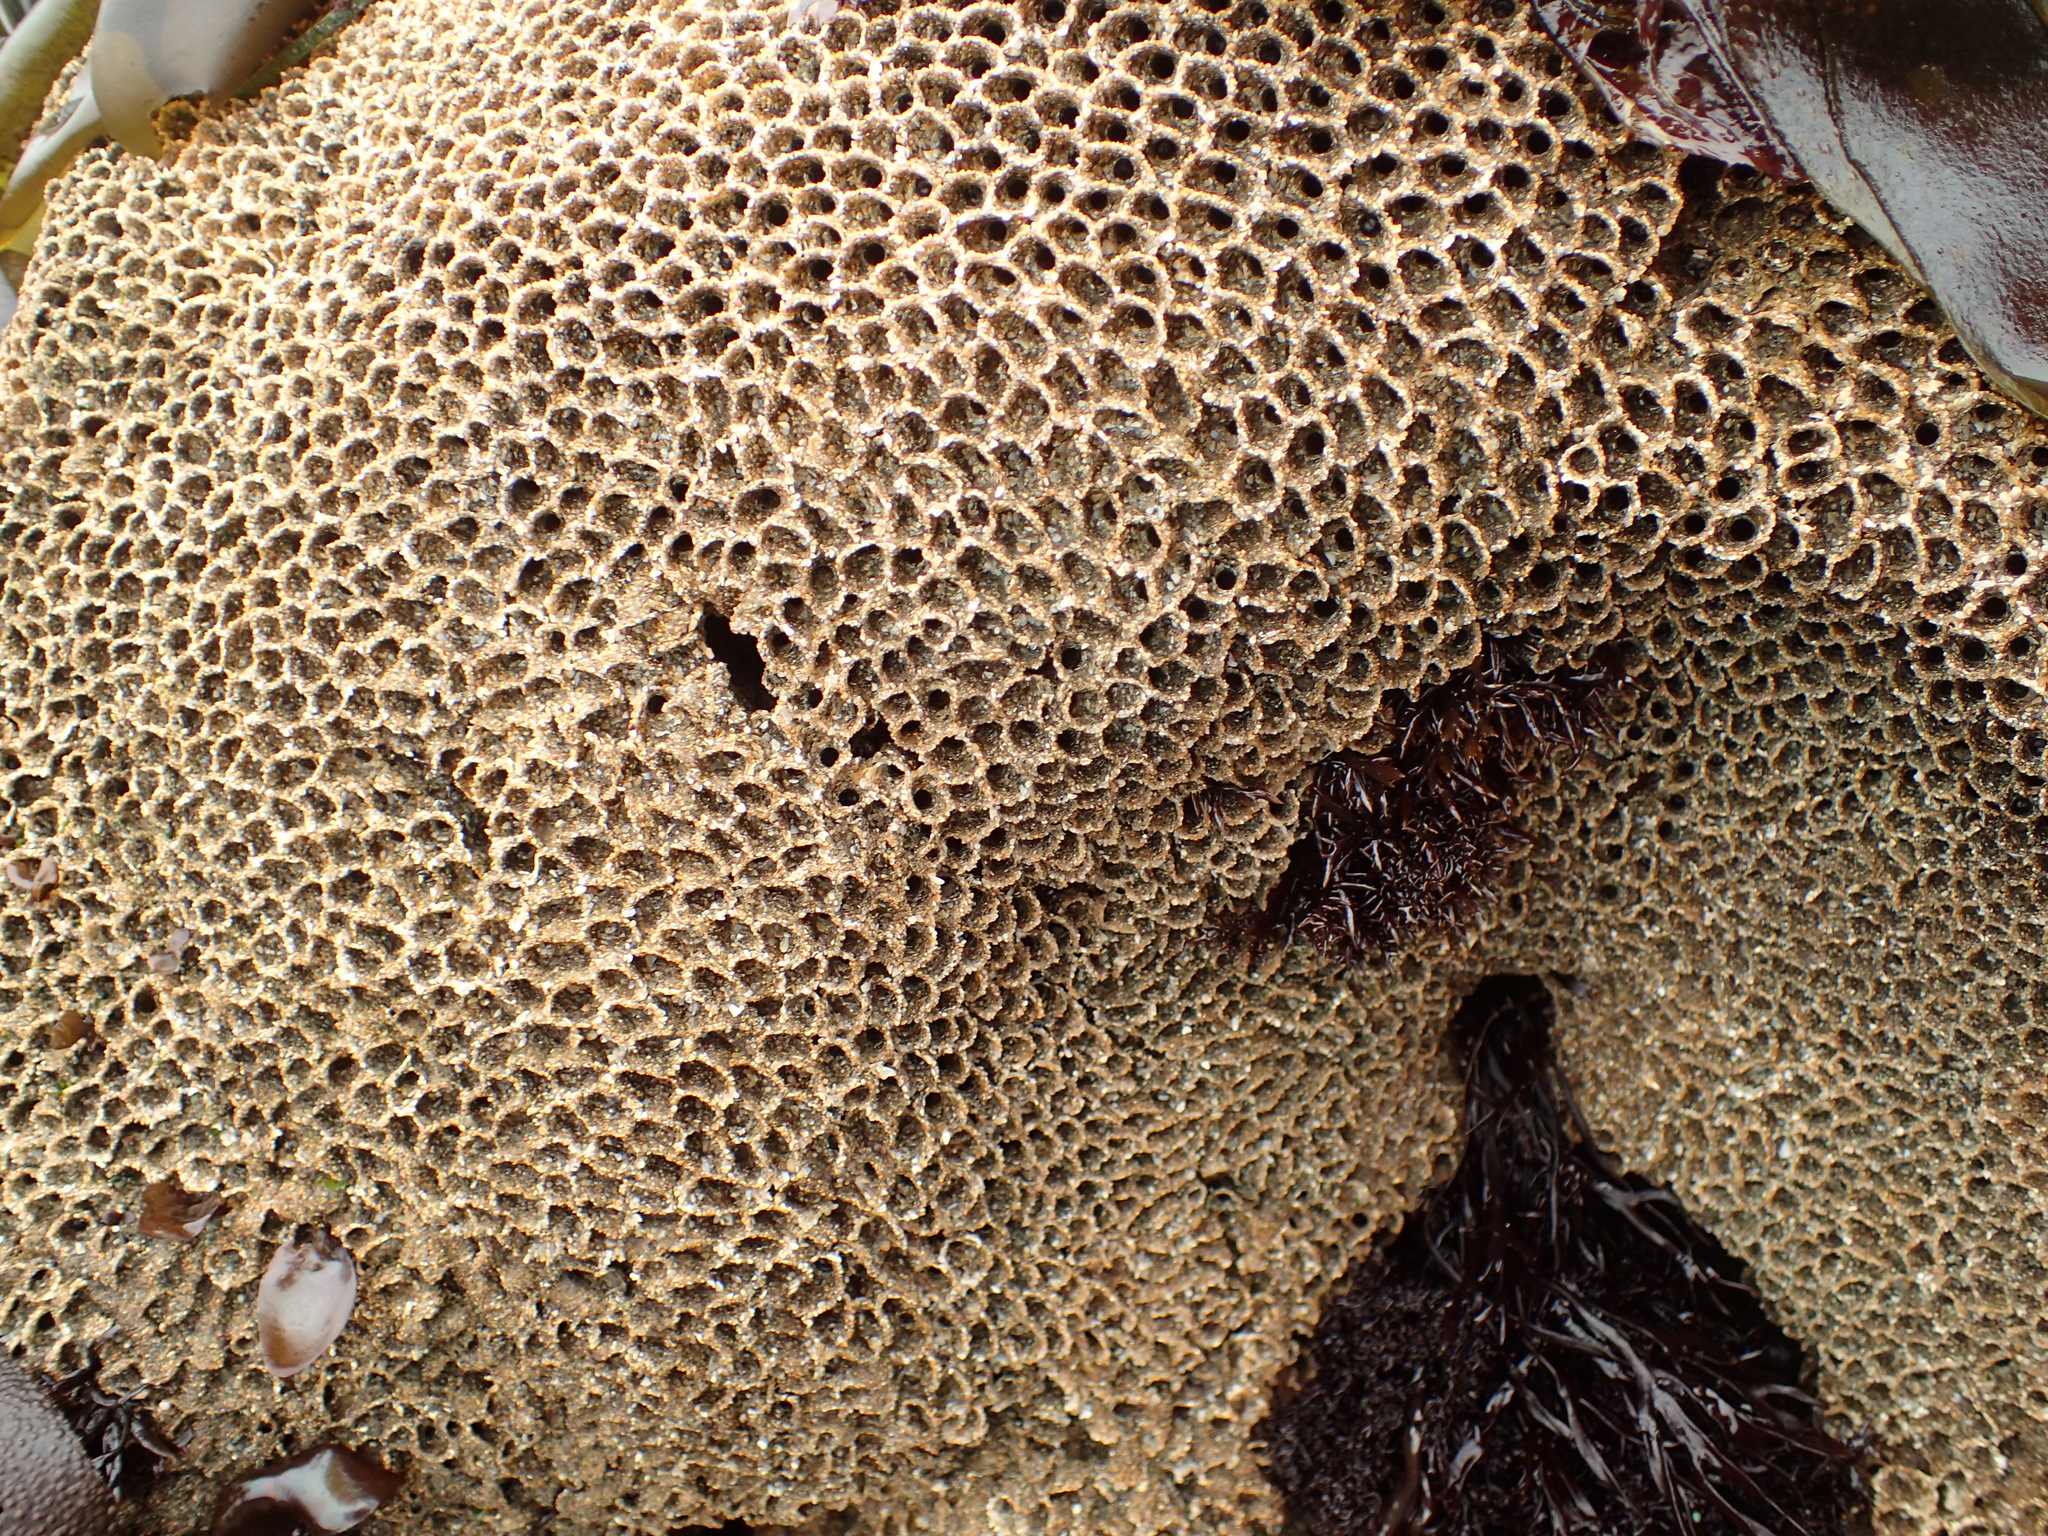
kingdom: Animalia
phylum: Annelida
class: Polychaeta
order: Sabellida
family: Sabellariidae
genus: Phragmatopoma
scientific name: Phragmatopoma californica
